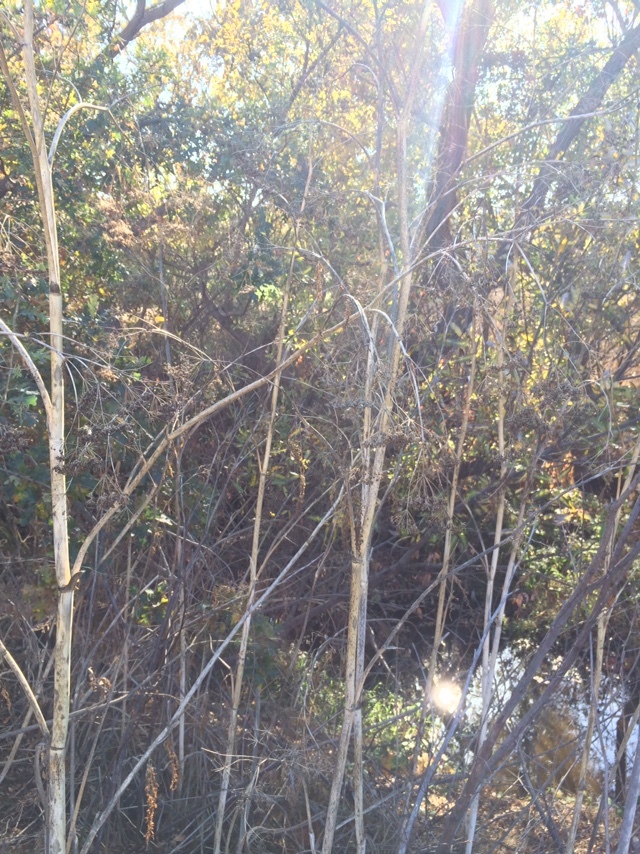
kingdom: Plantae
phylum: Tracheophyta
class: Magnoliopsida
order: Apiales
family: Apiaceae
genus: Conium
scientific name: Conium maculatum
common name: Hemlock
